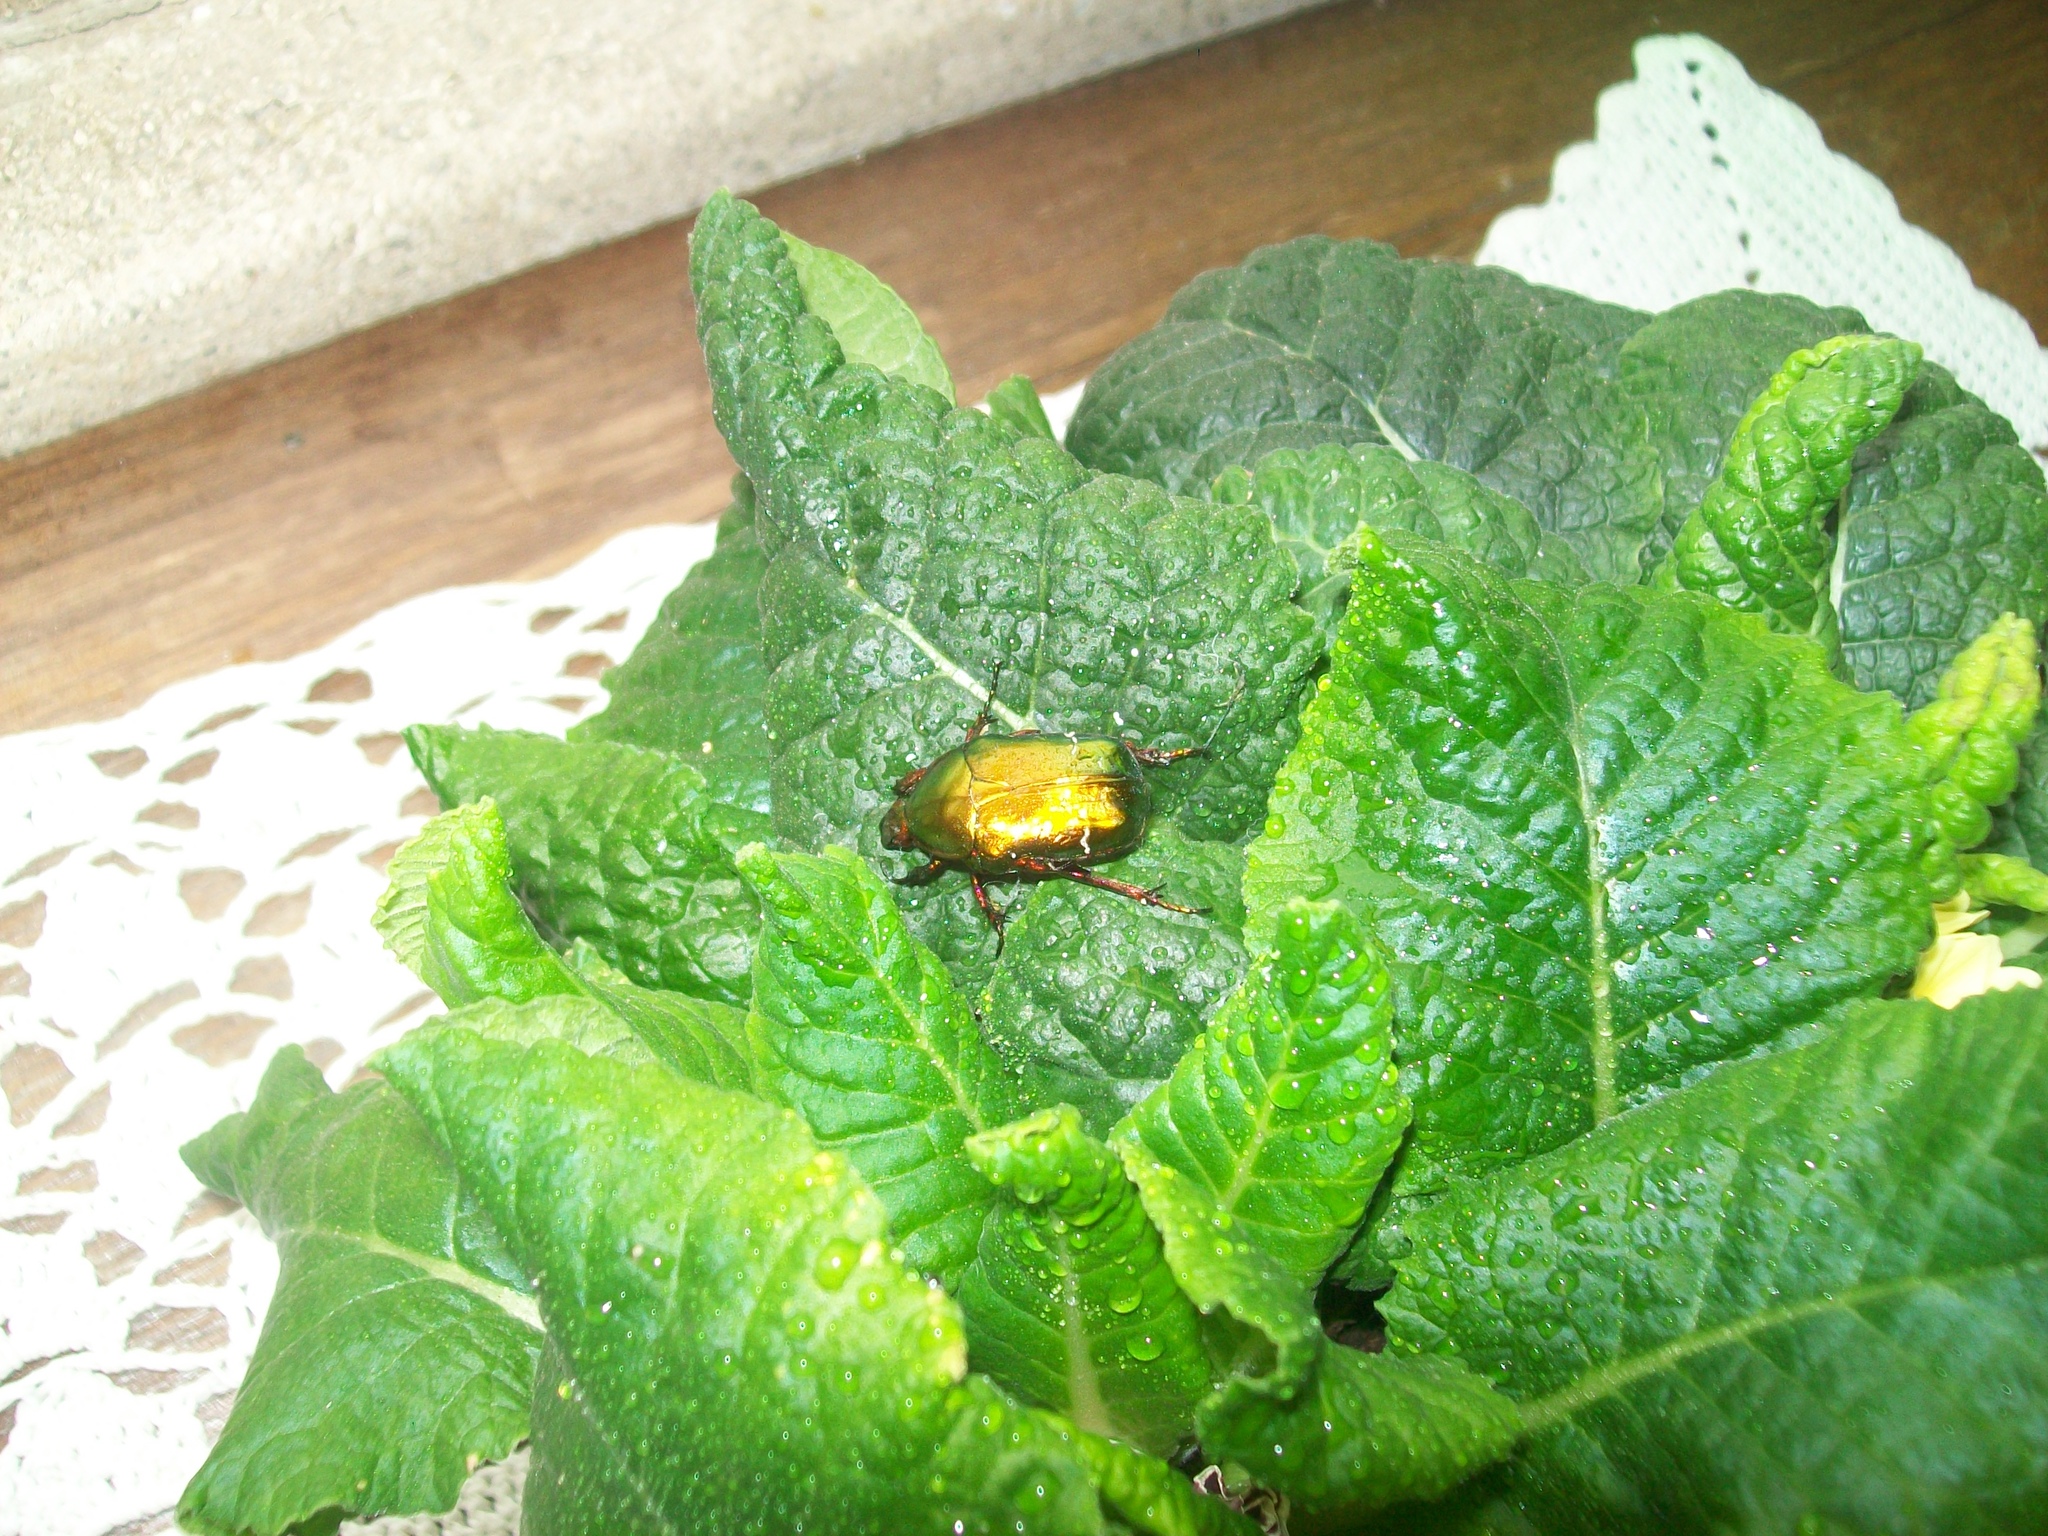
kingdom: Animalia
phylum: Arthropoda
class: Insecta
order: Coleoptera
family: Scarabaeidae
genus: Cetonia
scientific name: Cetonia aurata
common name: Rose chafer
